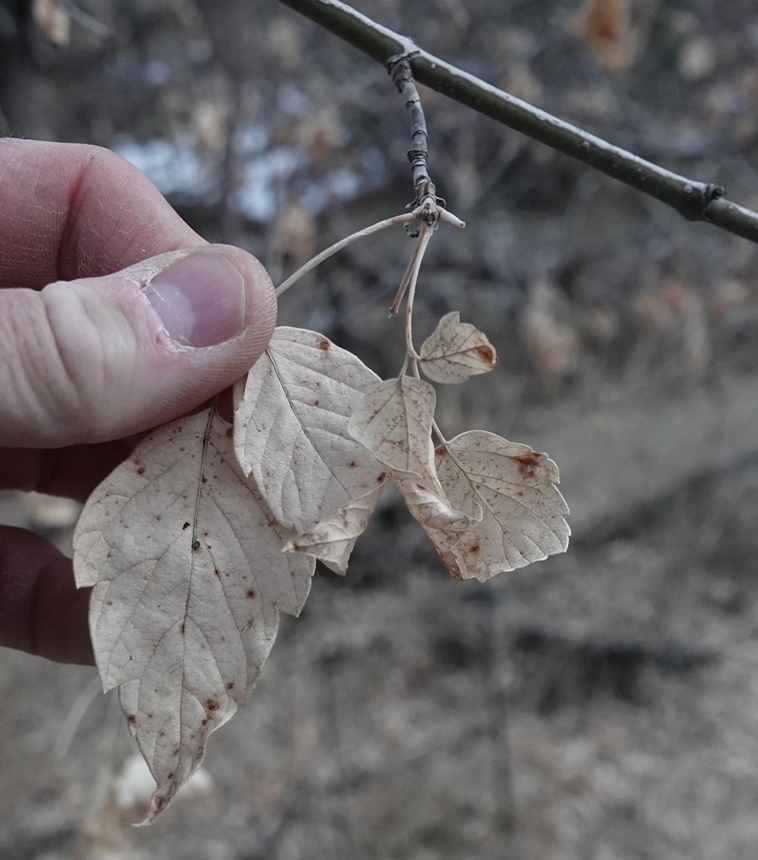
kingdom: Plantae
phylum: Tracheophyta
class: Magnoliopsida
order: Sapindales
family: Sapindaceae
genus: Acer
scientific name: Acer negundo
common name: Ashleaf maple
